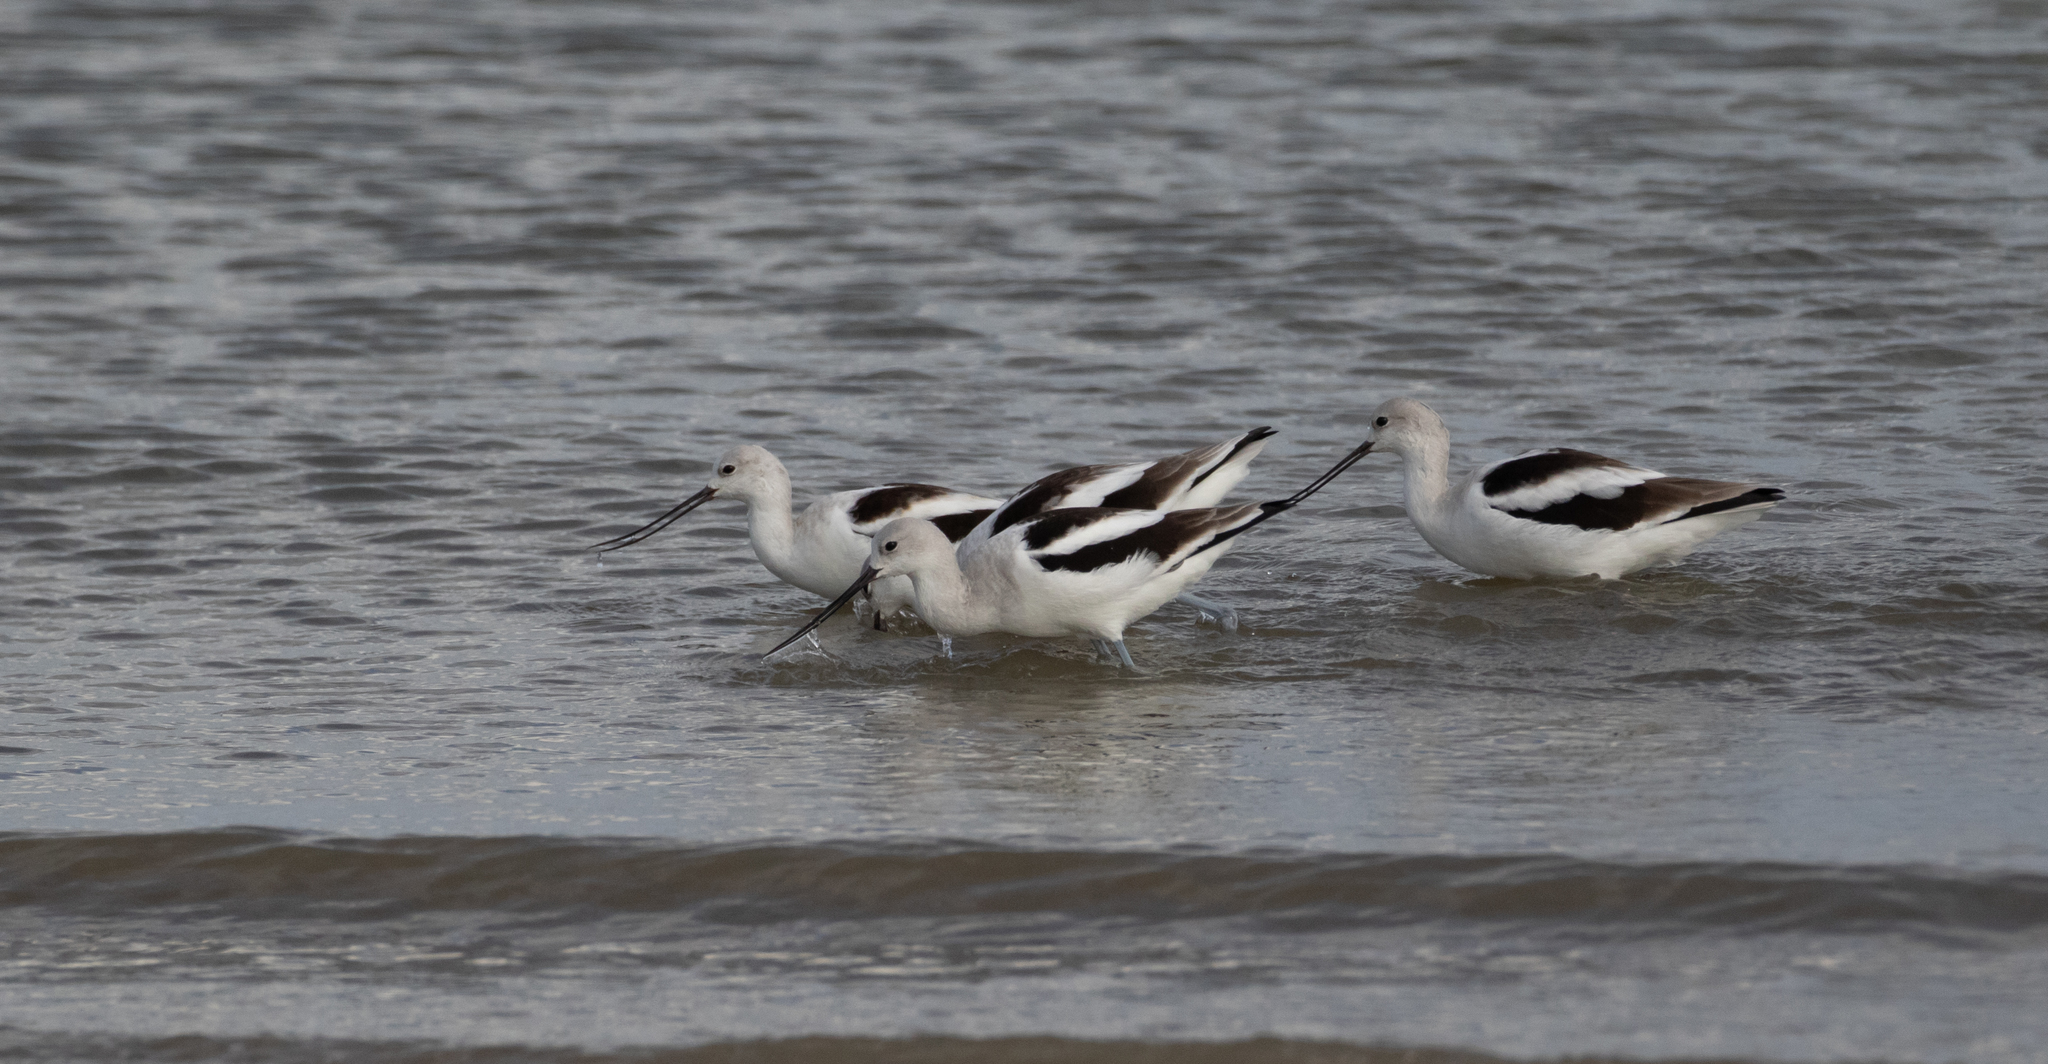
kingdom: Animalia
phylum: Chordata
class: Aves
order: Charadriiformes
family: Recurvirostridae
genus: Recurvirostra
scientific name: Recurvirostra americana
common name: American avocet
